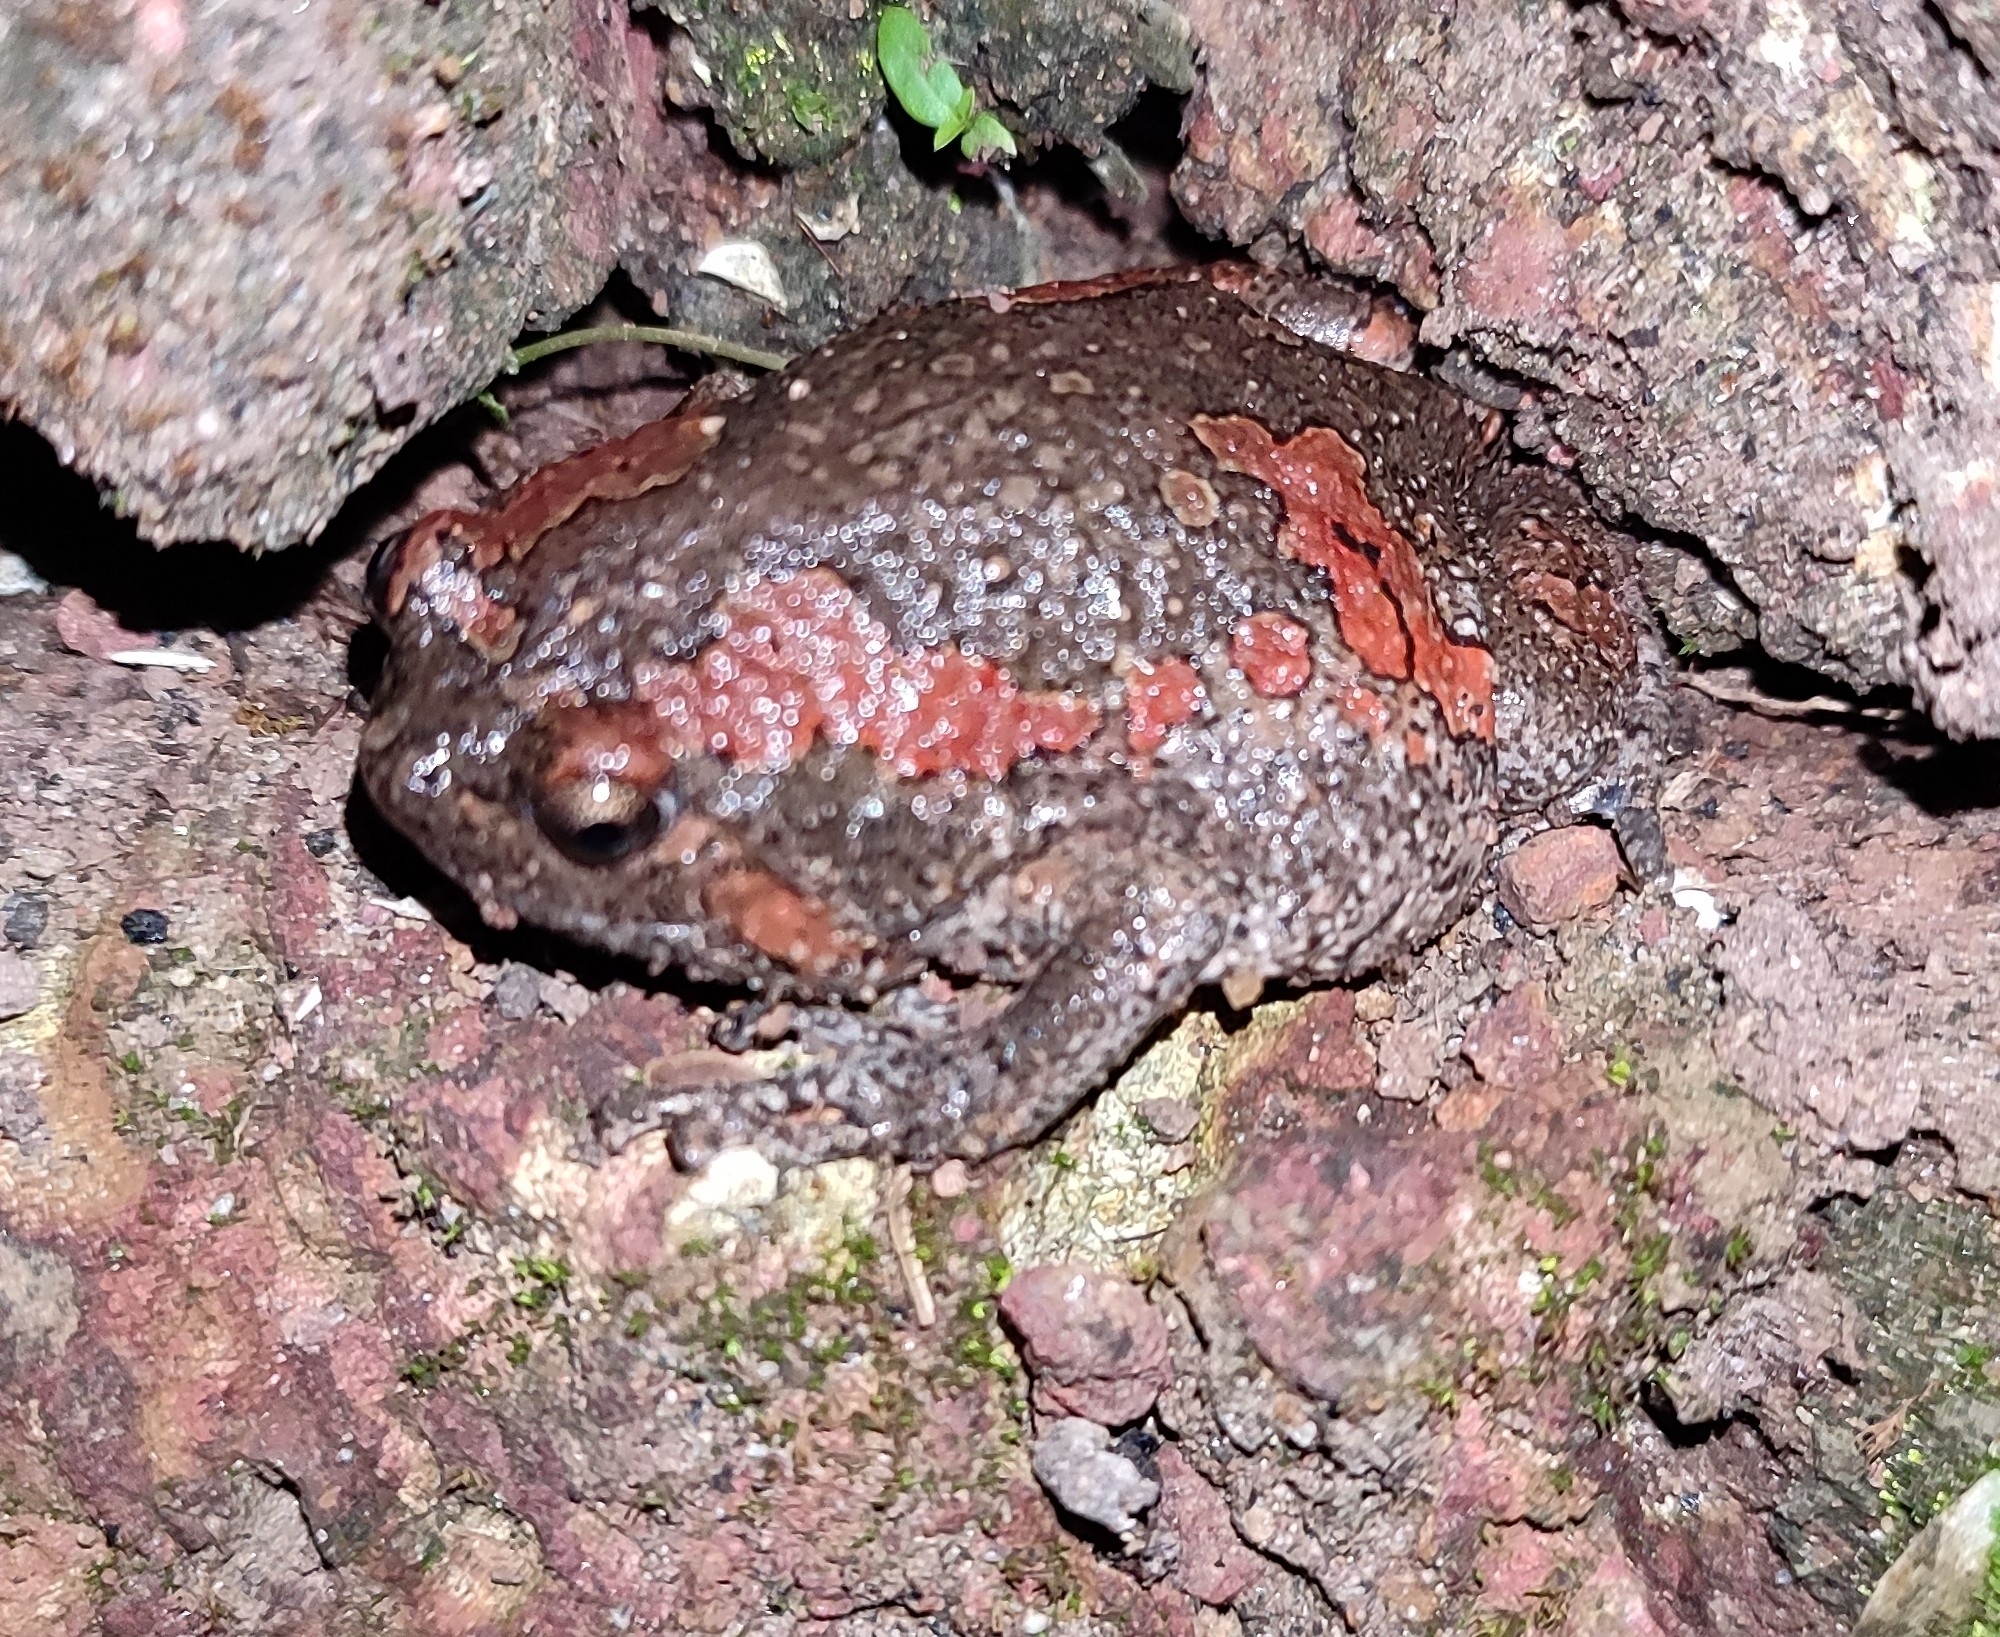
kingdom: Animalia
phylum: Chordata
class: Amphibia
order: Anura
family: Microhylidae
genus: Uperodon
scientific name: Uperodon taprobanicus
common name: Ceylon kaloula
